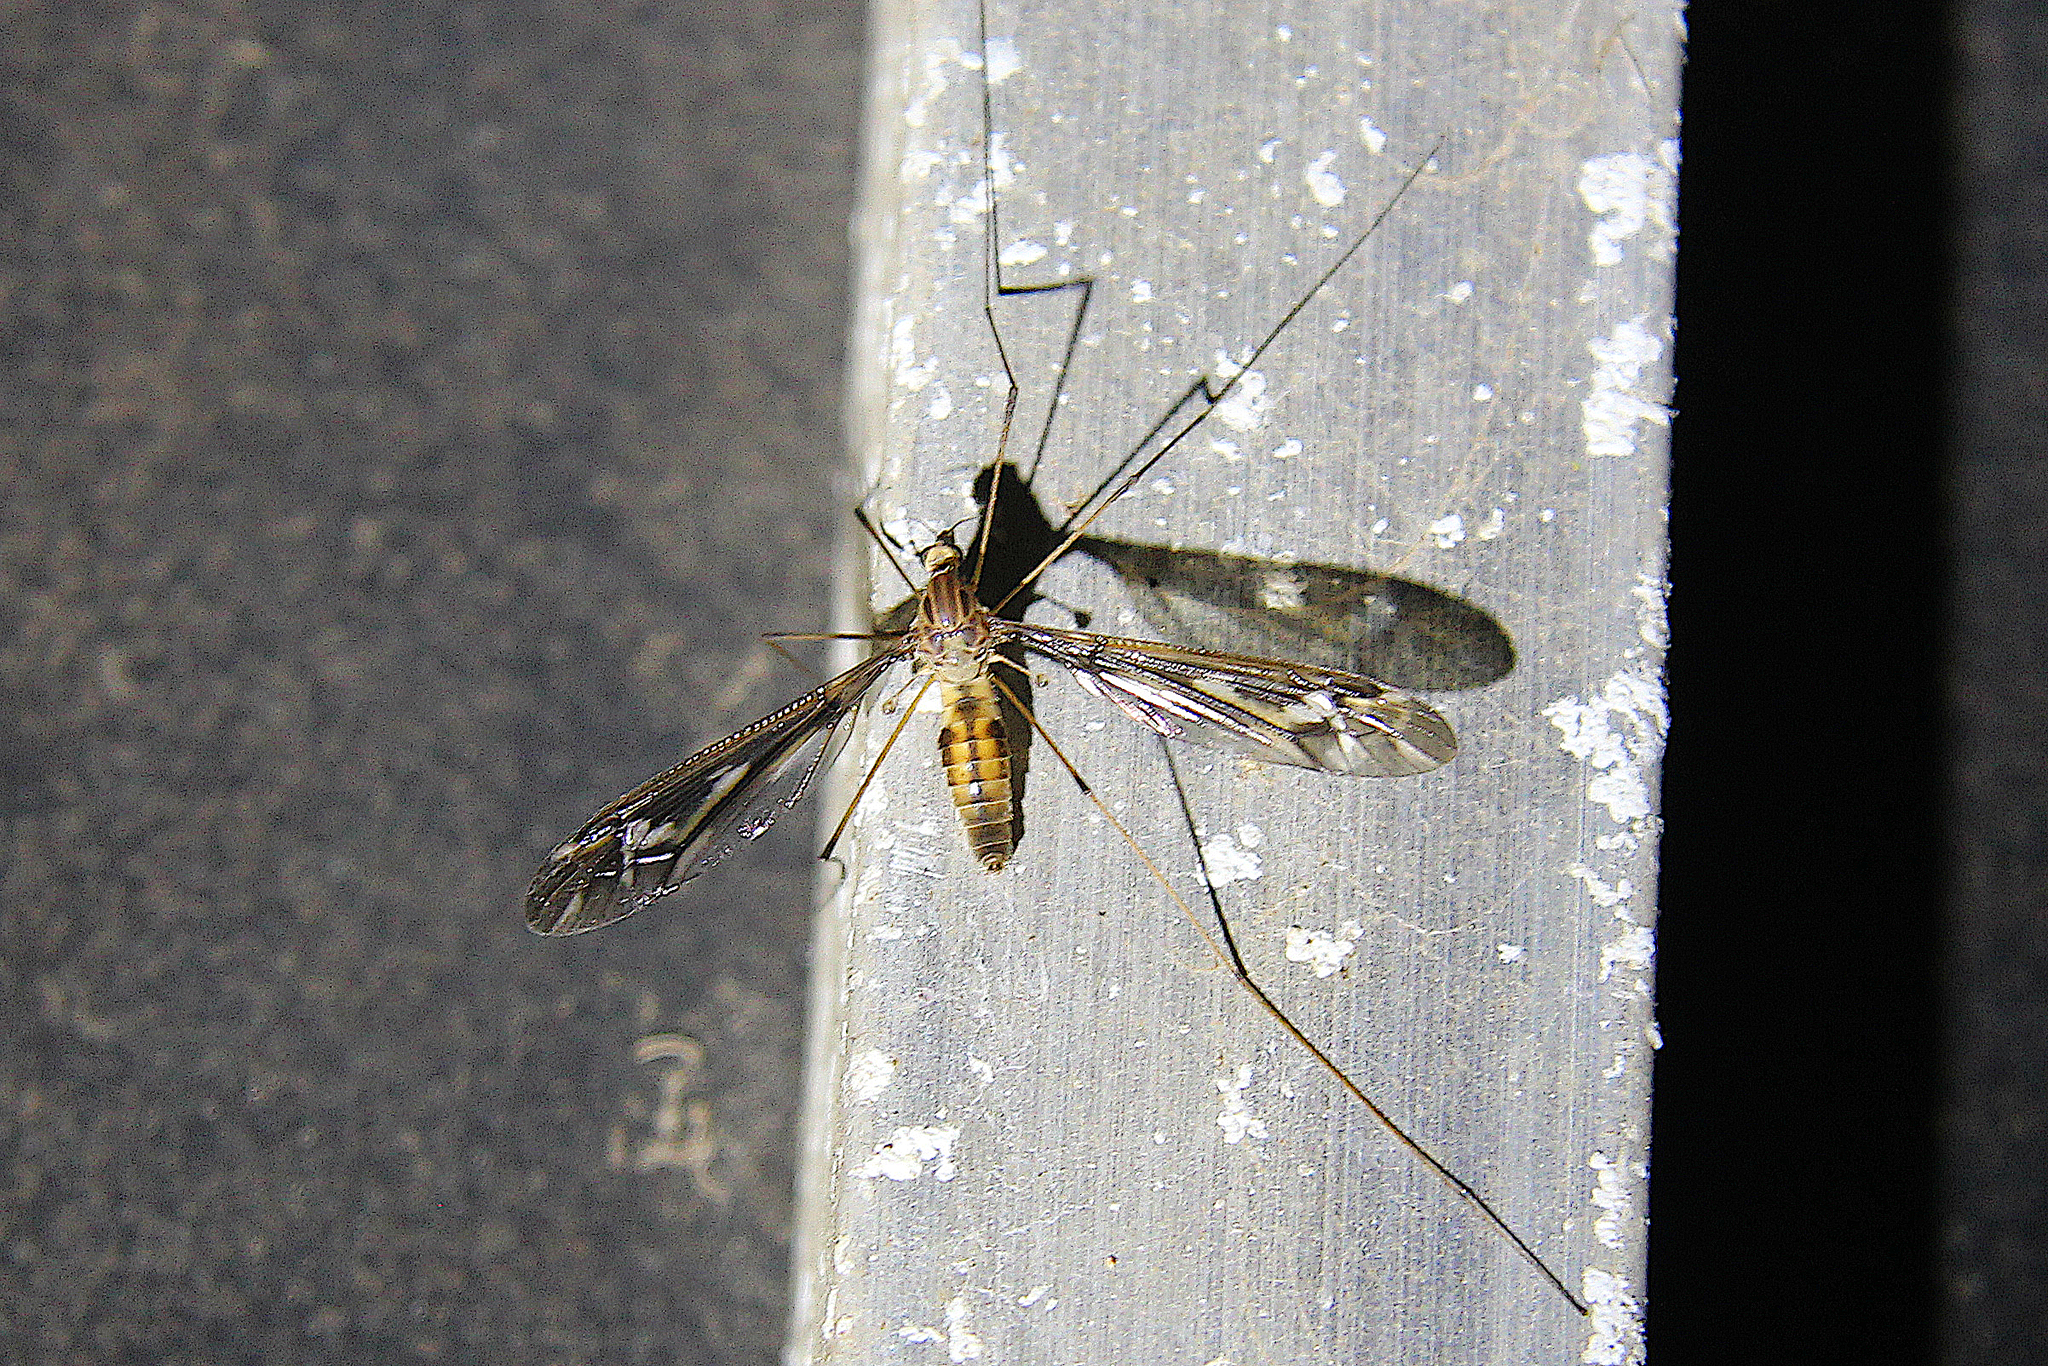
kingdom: Animalia
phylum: Arthropoda
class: Insecta
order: Diptera
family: Tipulidae
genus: Leptotarsus
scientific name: Leptotarsus huttoni
